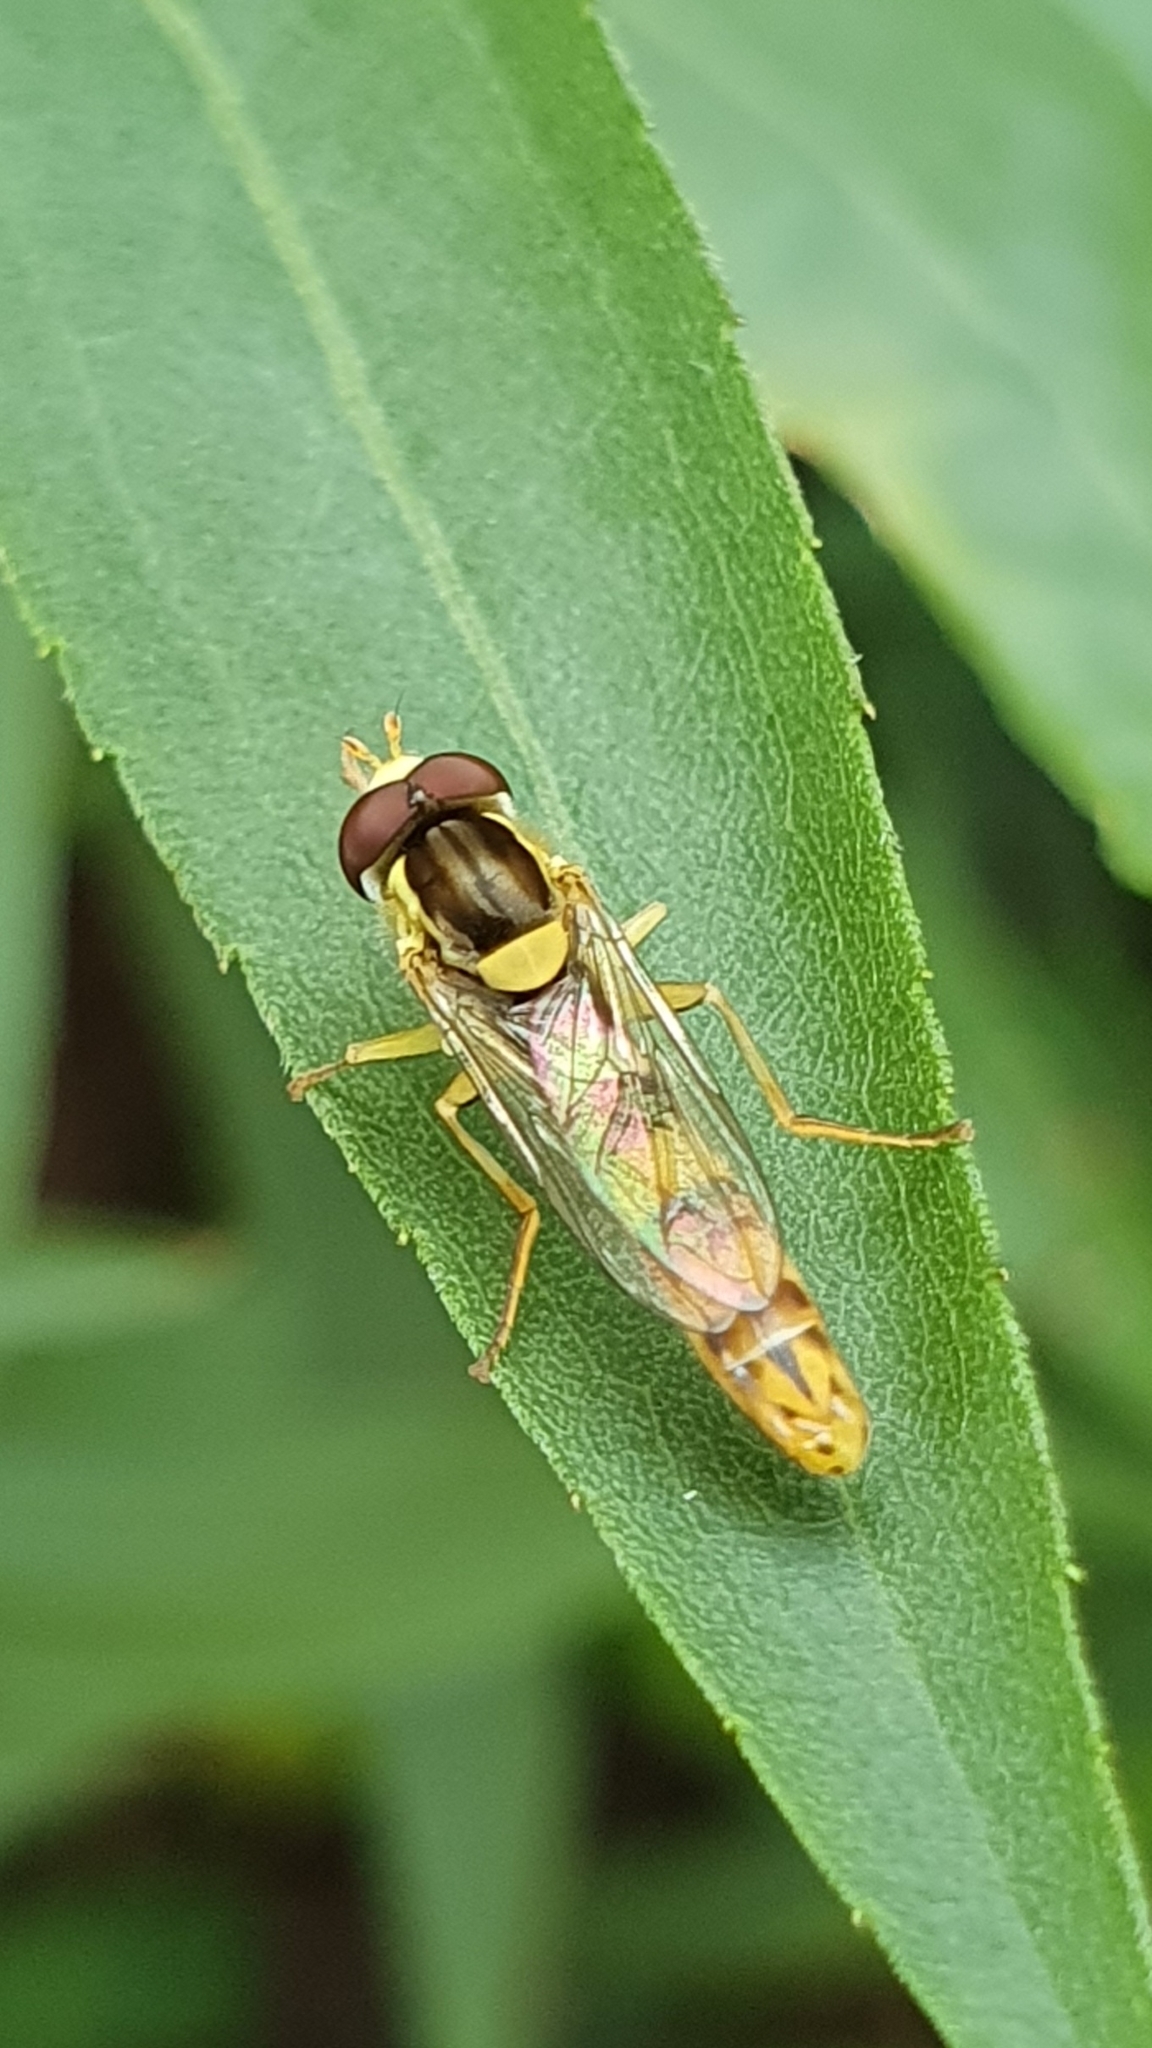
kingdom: Animalia
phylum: Arthropoda
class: Insecta
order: Diptera
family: Syrphidae
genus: Sphaerophoria
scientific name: Sphaerophoria scripta
